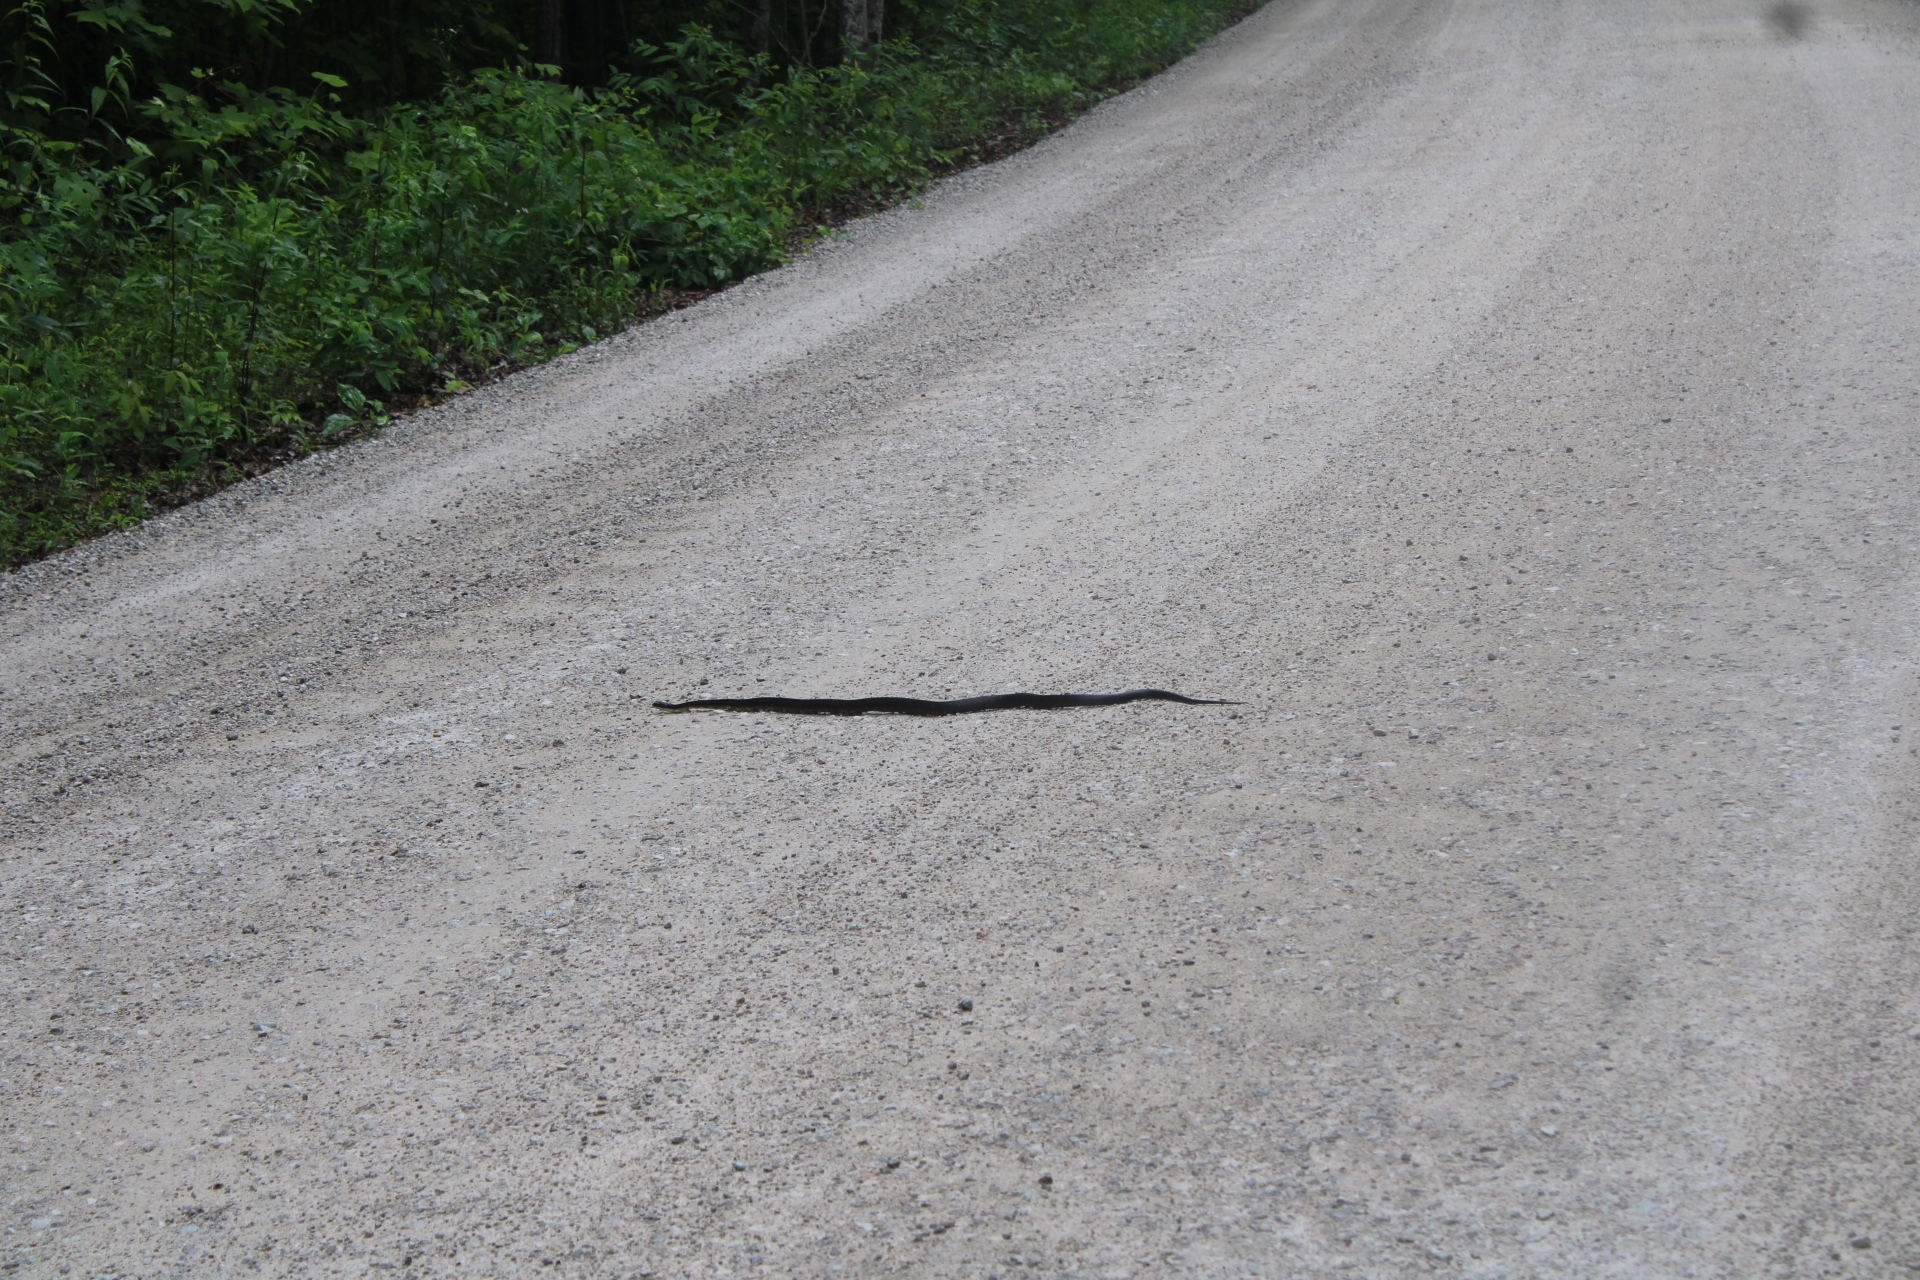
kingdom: Animalia
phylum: Chordata
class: Squamata
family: Colubridae
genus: Pantherophis
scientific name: Pantherophis spiloides
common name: Gray rat snake
